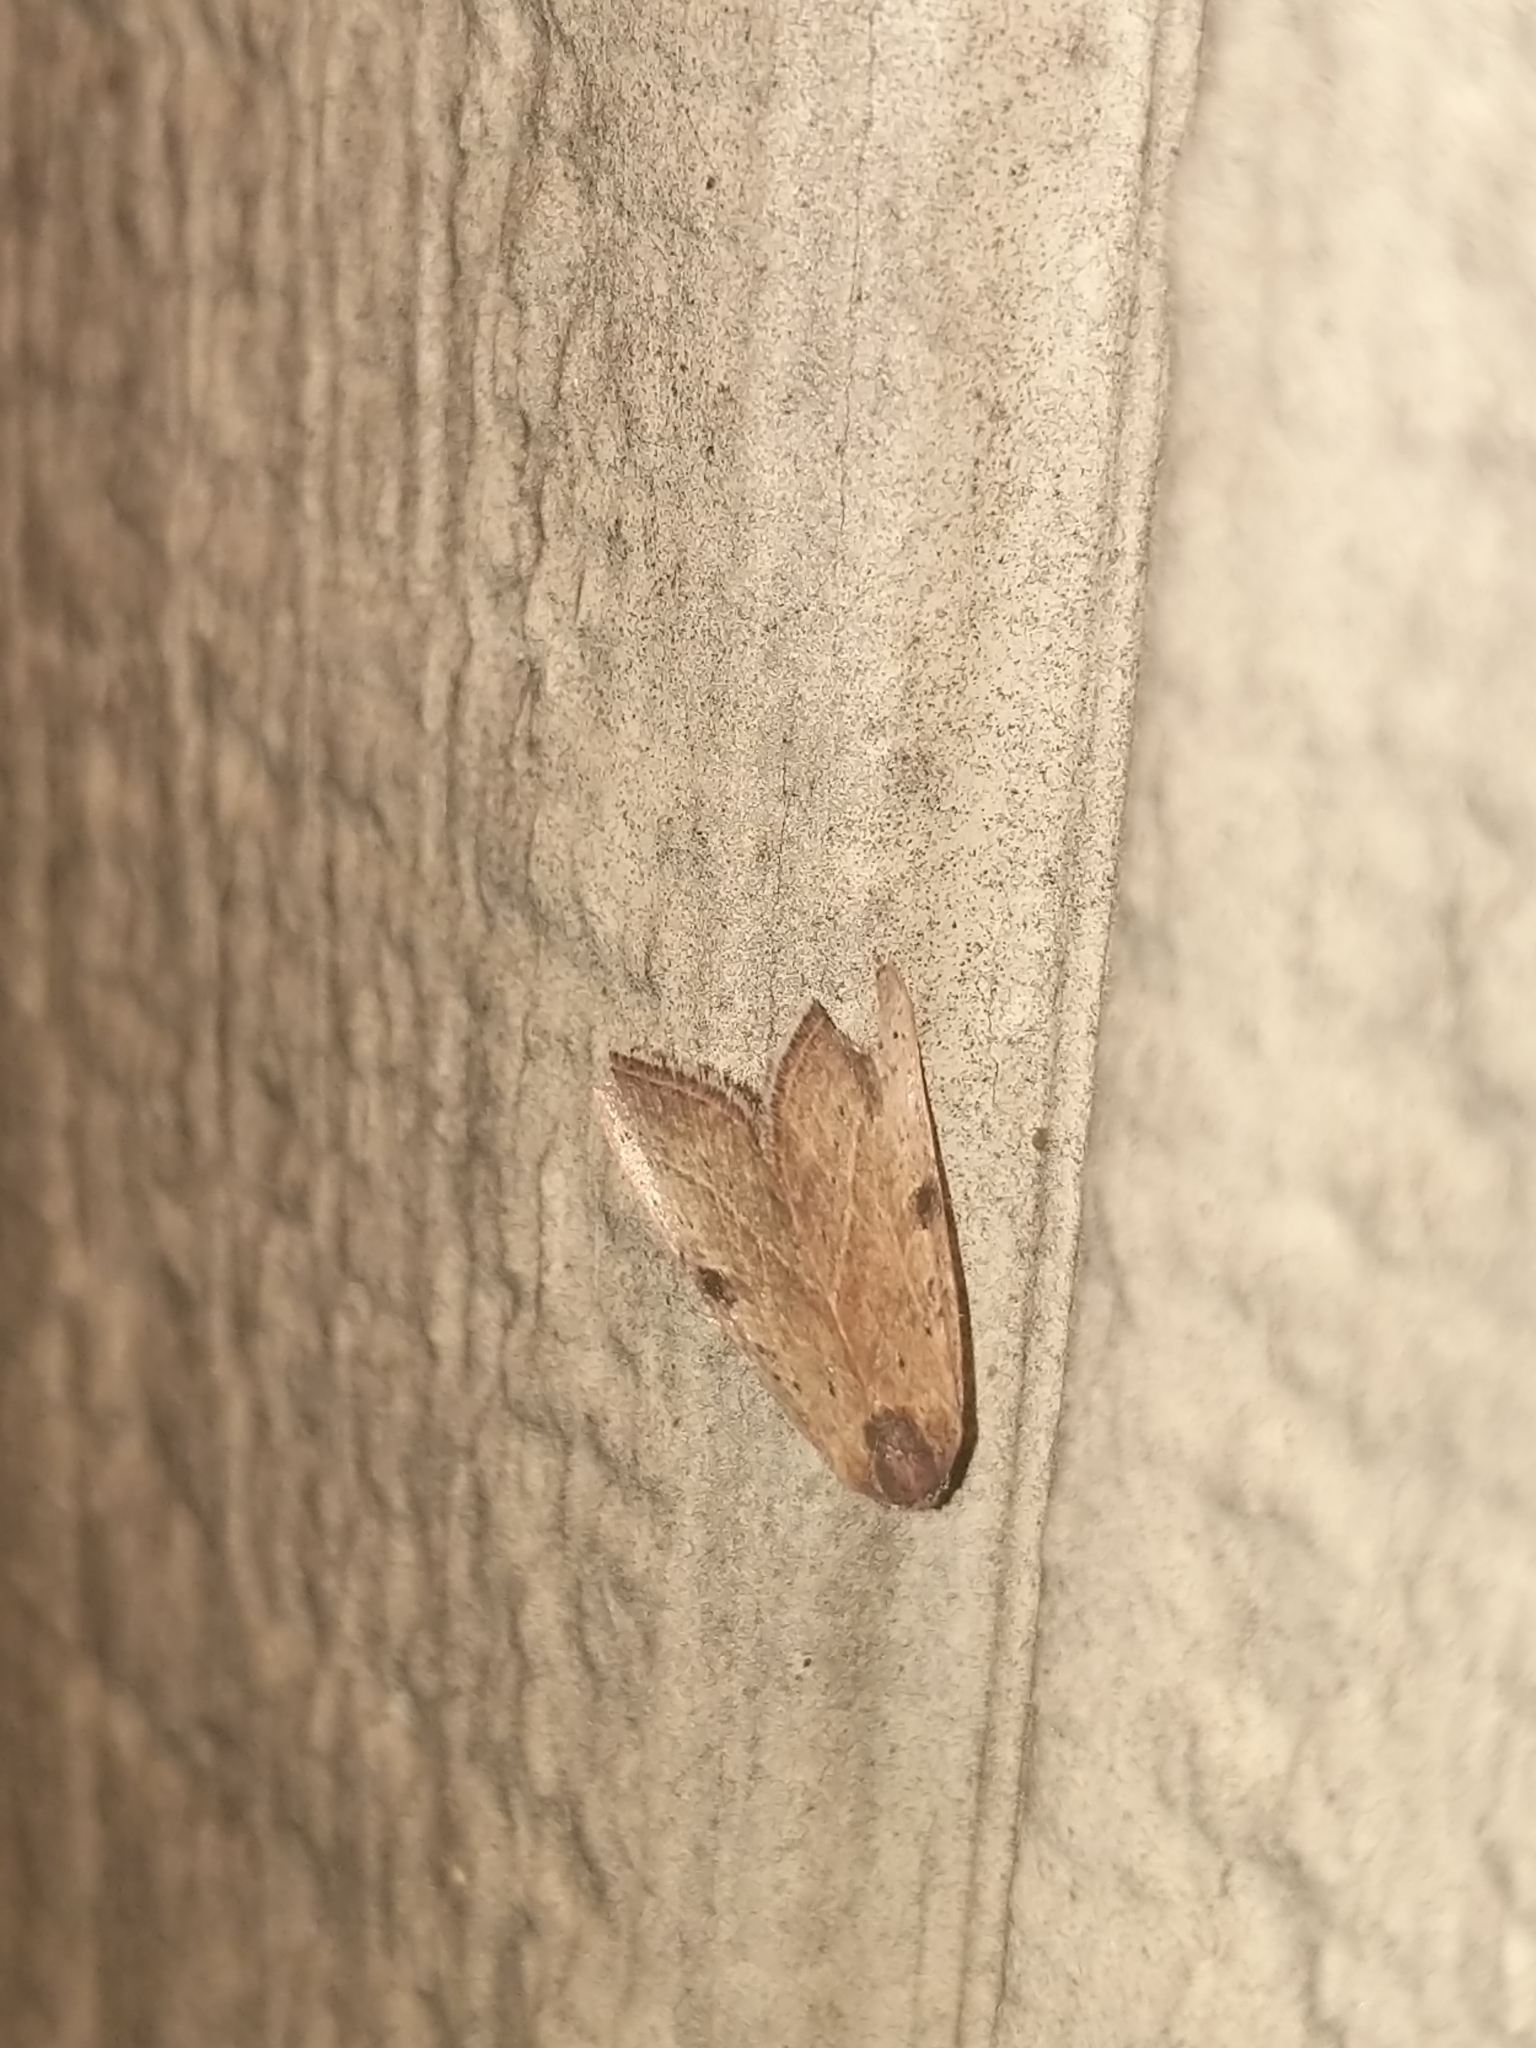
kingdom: Animalia
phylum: Arthropoda
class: Insecta
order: Lepidoptera
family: Noctuidae
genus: Galgula
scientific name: Galgula partita
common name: Wedgeling
